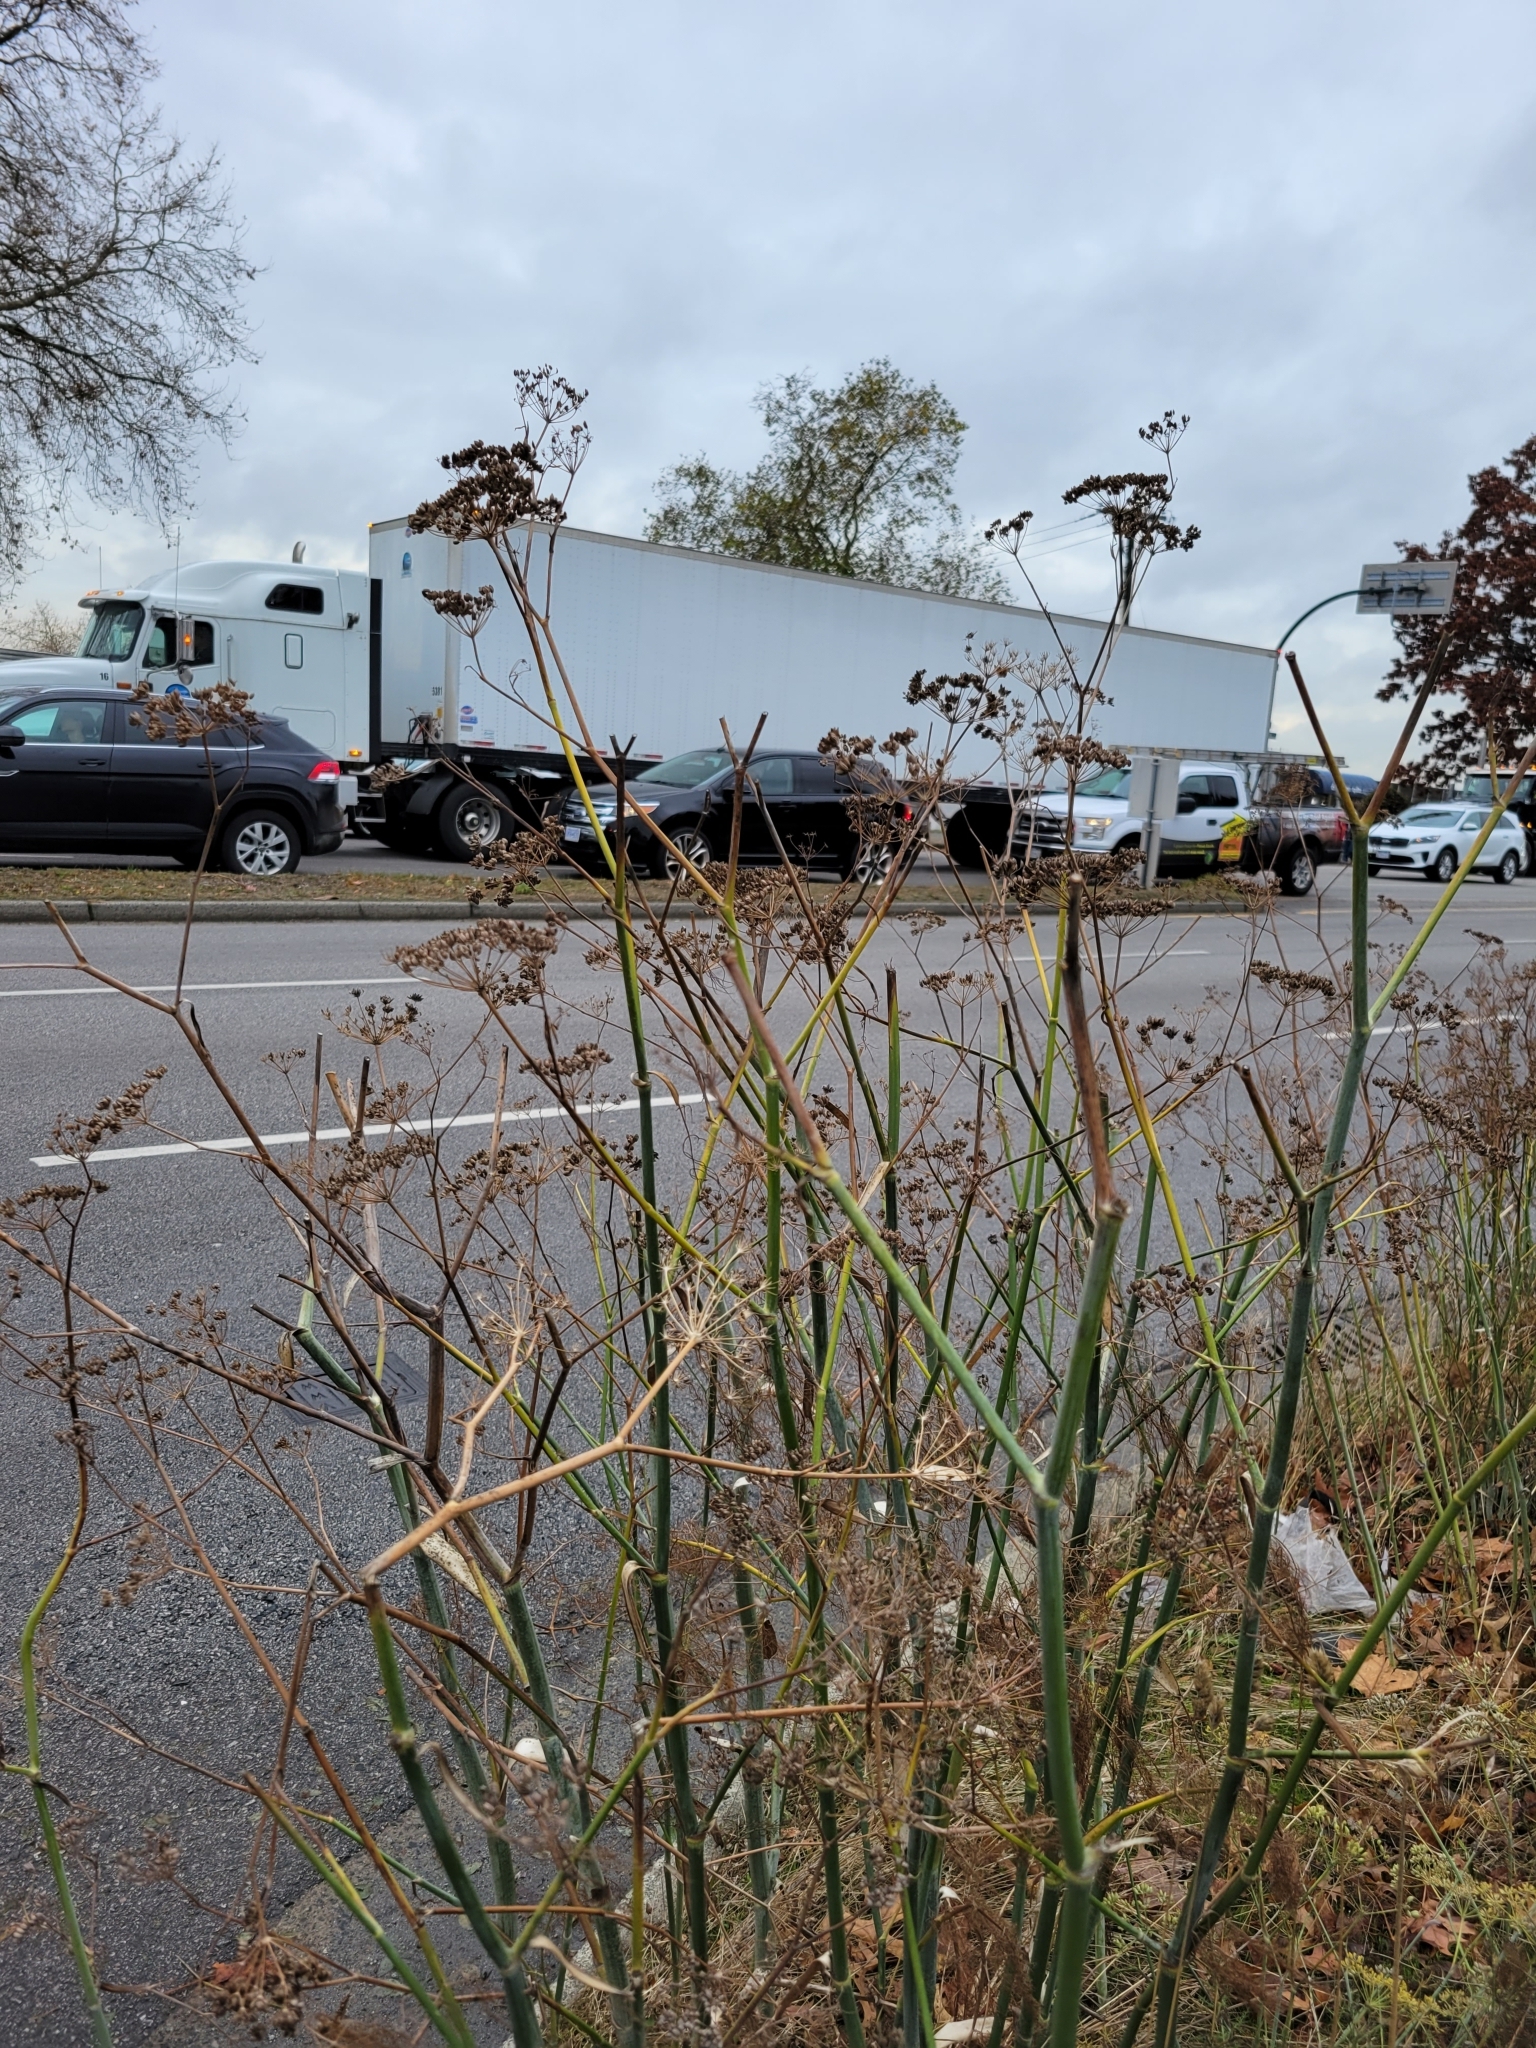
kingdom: Plantae
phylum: Tracheophyta
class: Magnoliopsida
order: Apiales
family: Apiaceae
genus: Foeniculum
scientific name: Foeniculum vulgare
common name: Fennel
